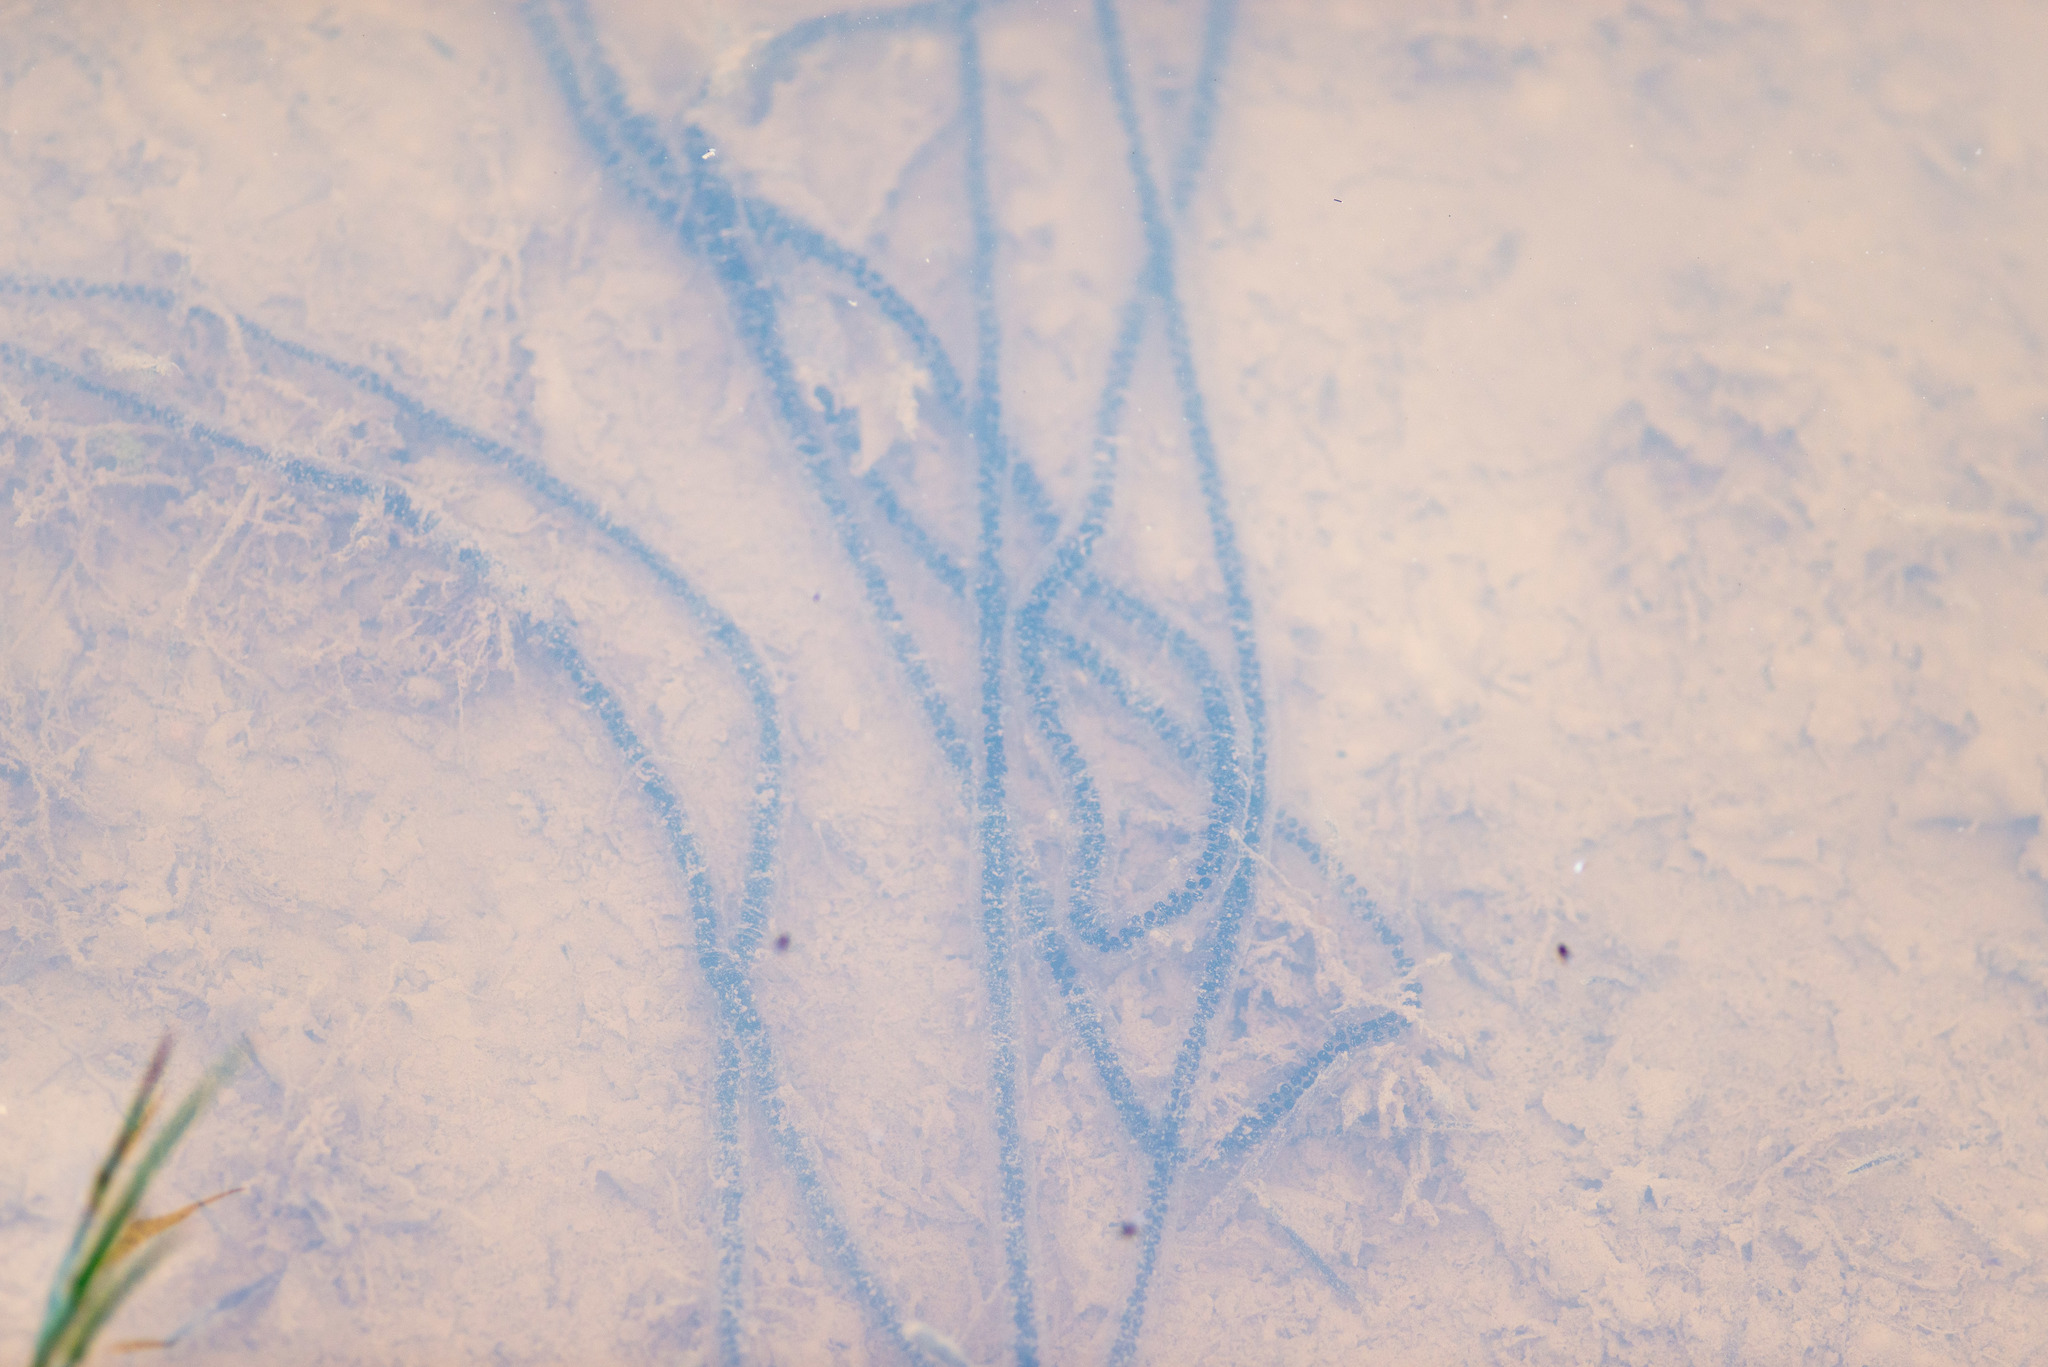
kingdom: Animalia
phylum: Chordata
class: Amphibia
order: Anura
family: Bufonidae
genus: Epidalea
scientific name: Epidalea calamita
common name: Natterjack toad
